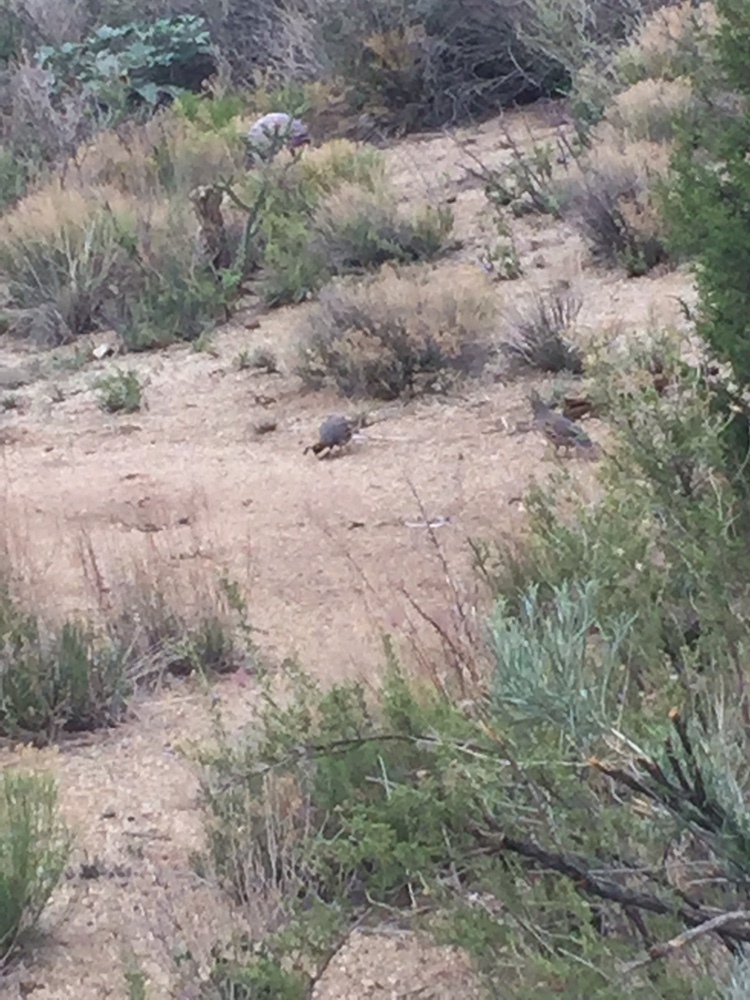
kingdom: Animalia
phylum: Chordata
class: Aves
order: Galliformes
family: Odontophoridae
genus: Callipepla
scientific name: Callipepla gambelii
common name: Gambel's quail
